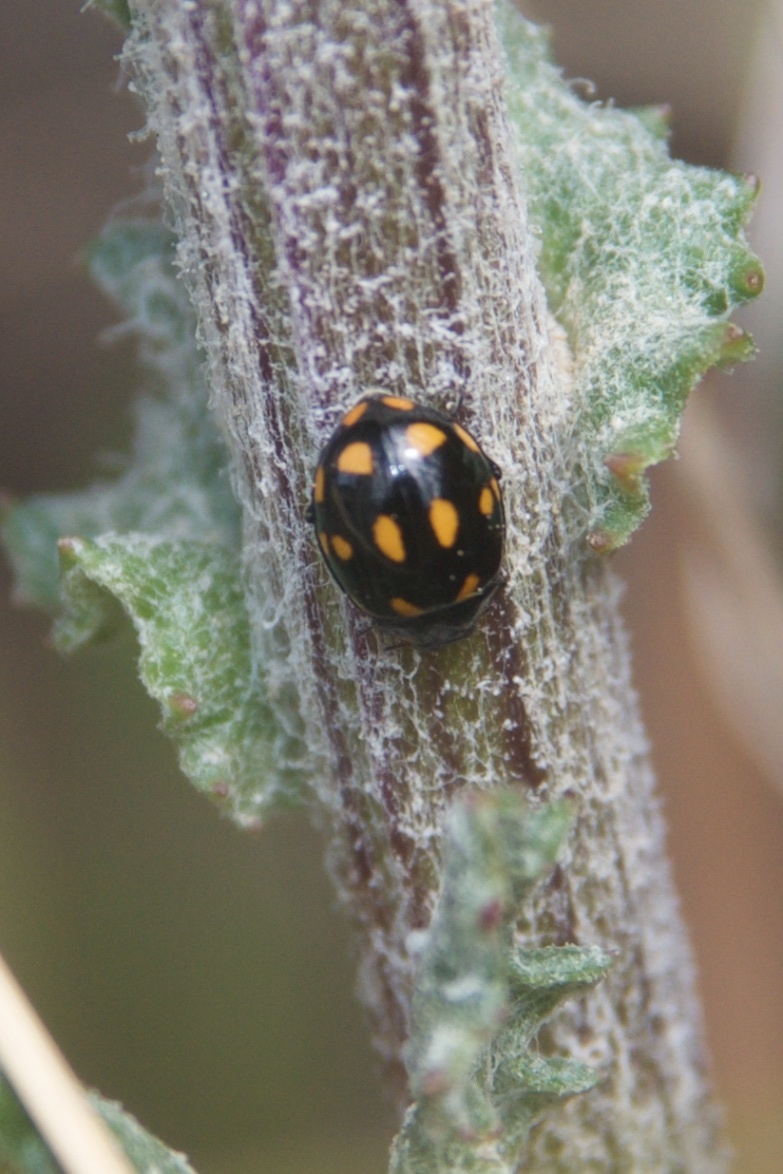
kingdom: Animalia
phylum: Arthropoda
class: Insecta
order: Coleoptera
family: Coccinellidae
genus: Coccinella
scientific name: Coccinella leonina
